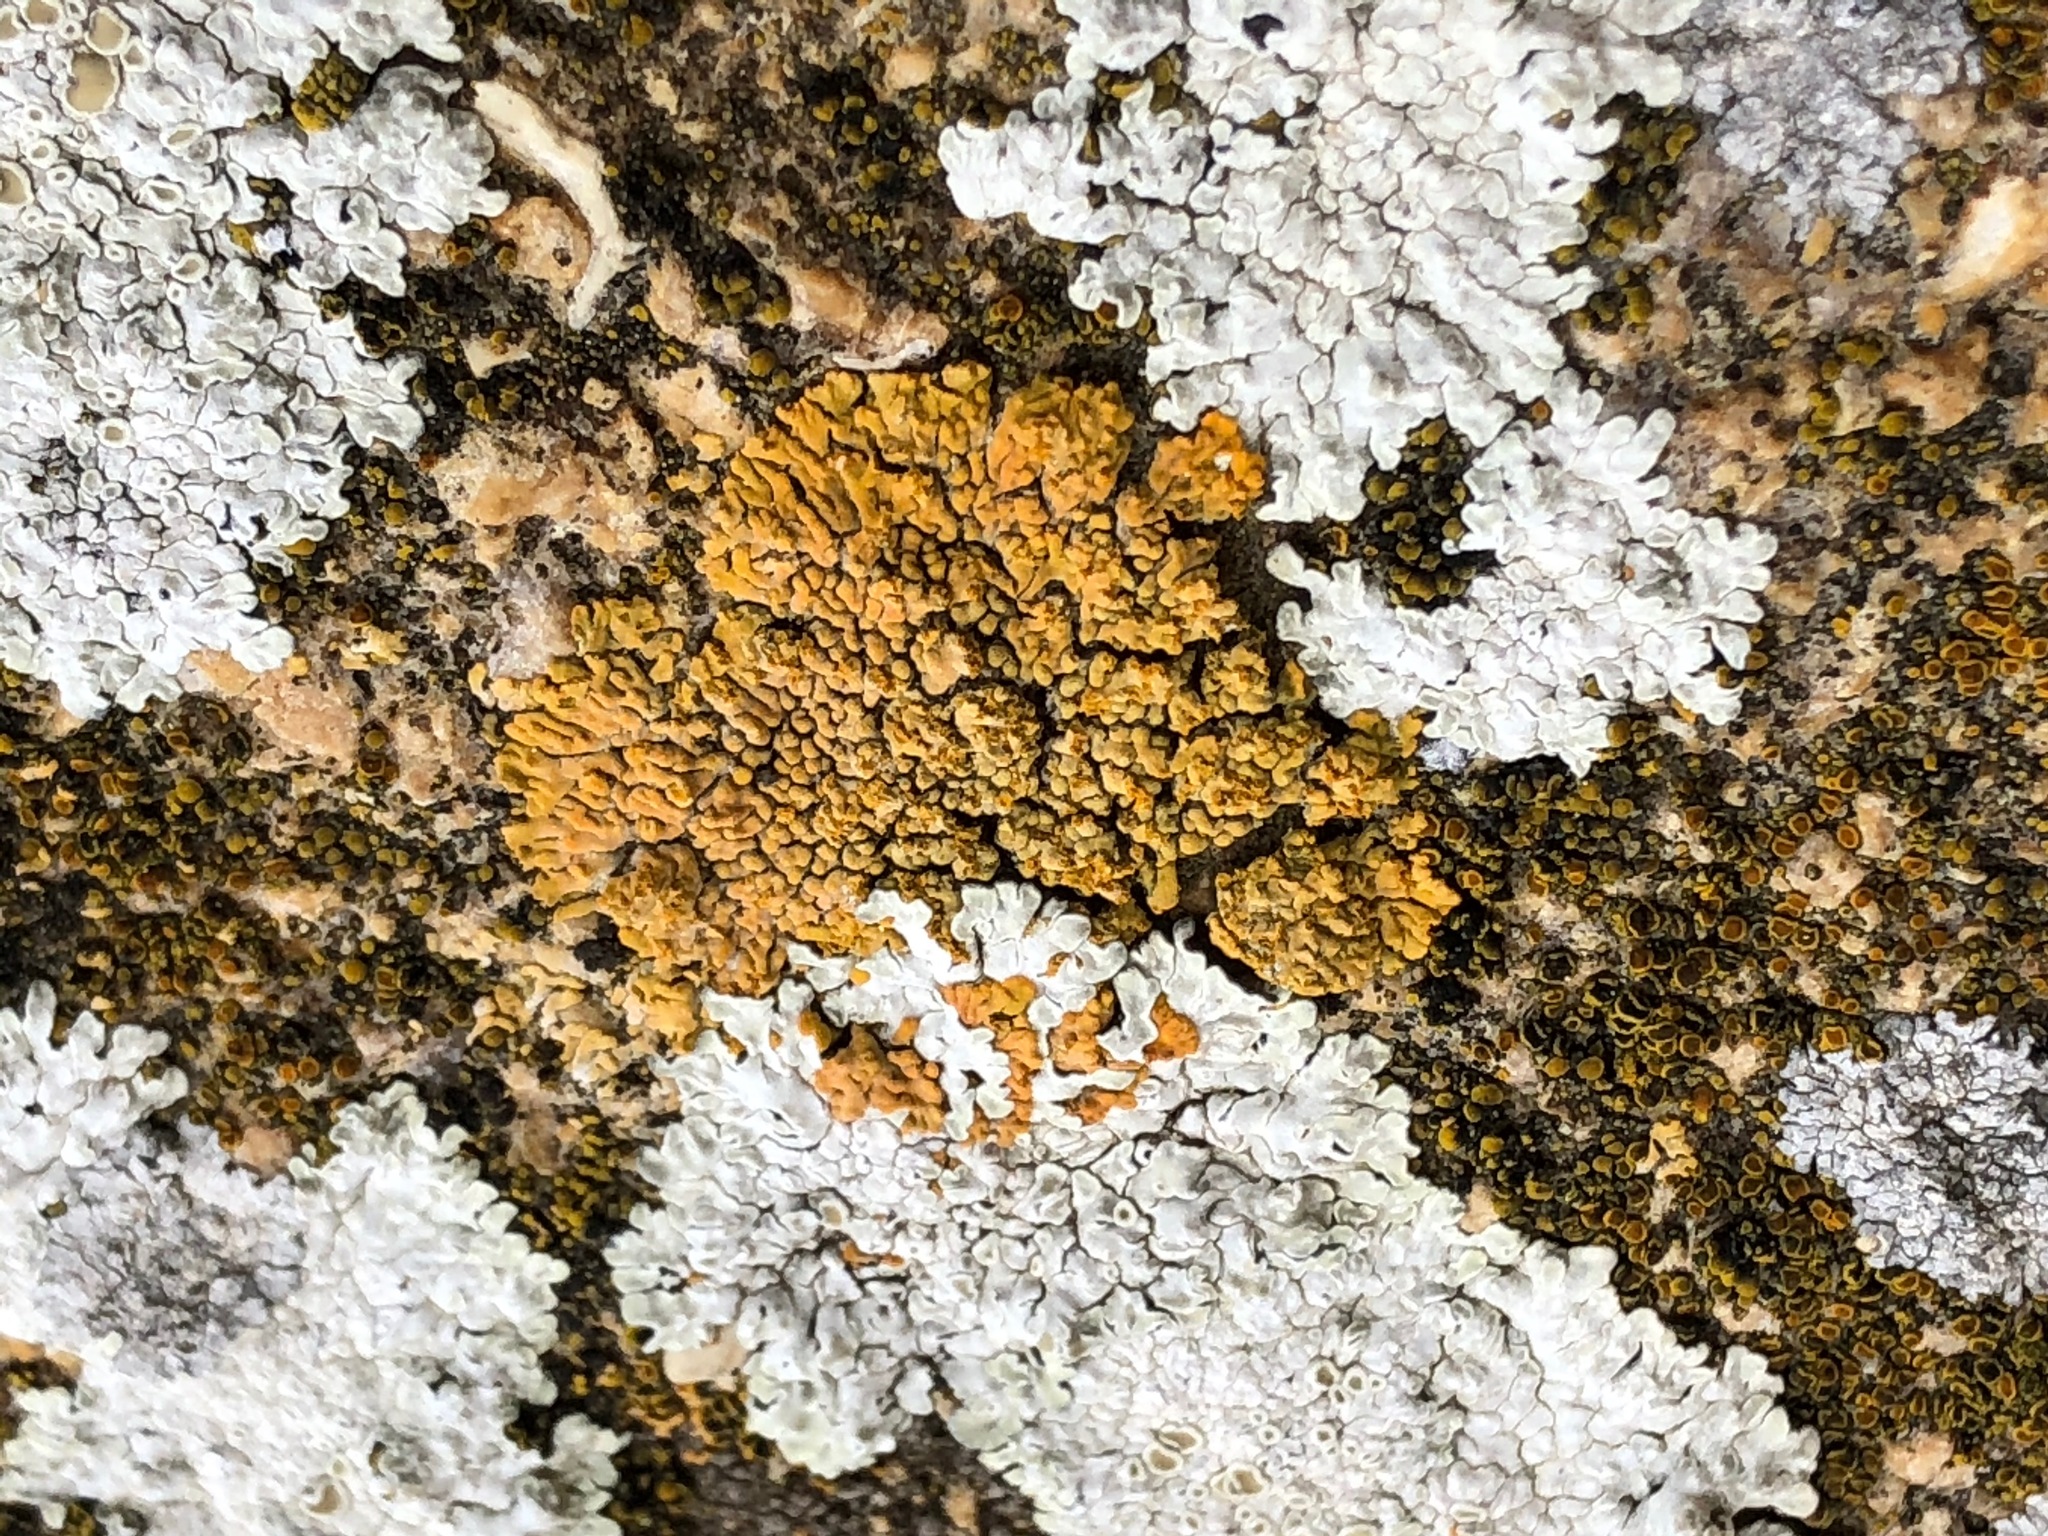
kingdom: Fungi
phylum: Ascomycota
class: Lecanoromycetes
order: Teloschistales
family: Teloschistaceae
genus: Calogaya
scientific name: Calogaya decipiens
